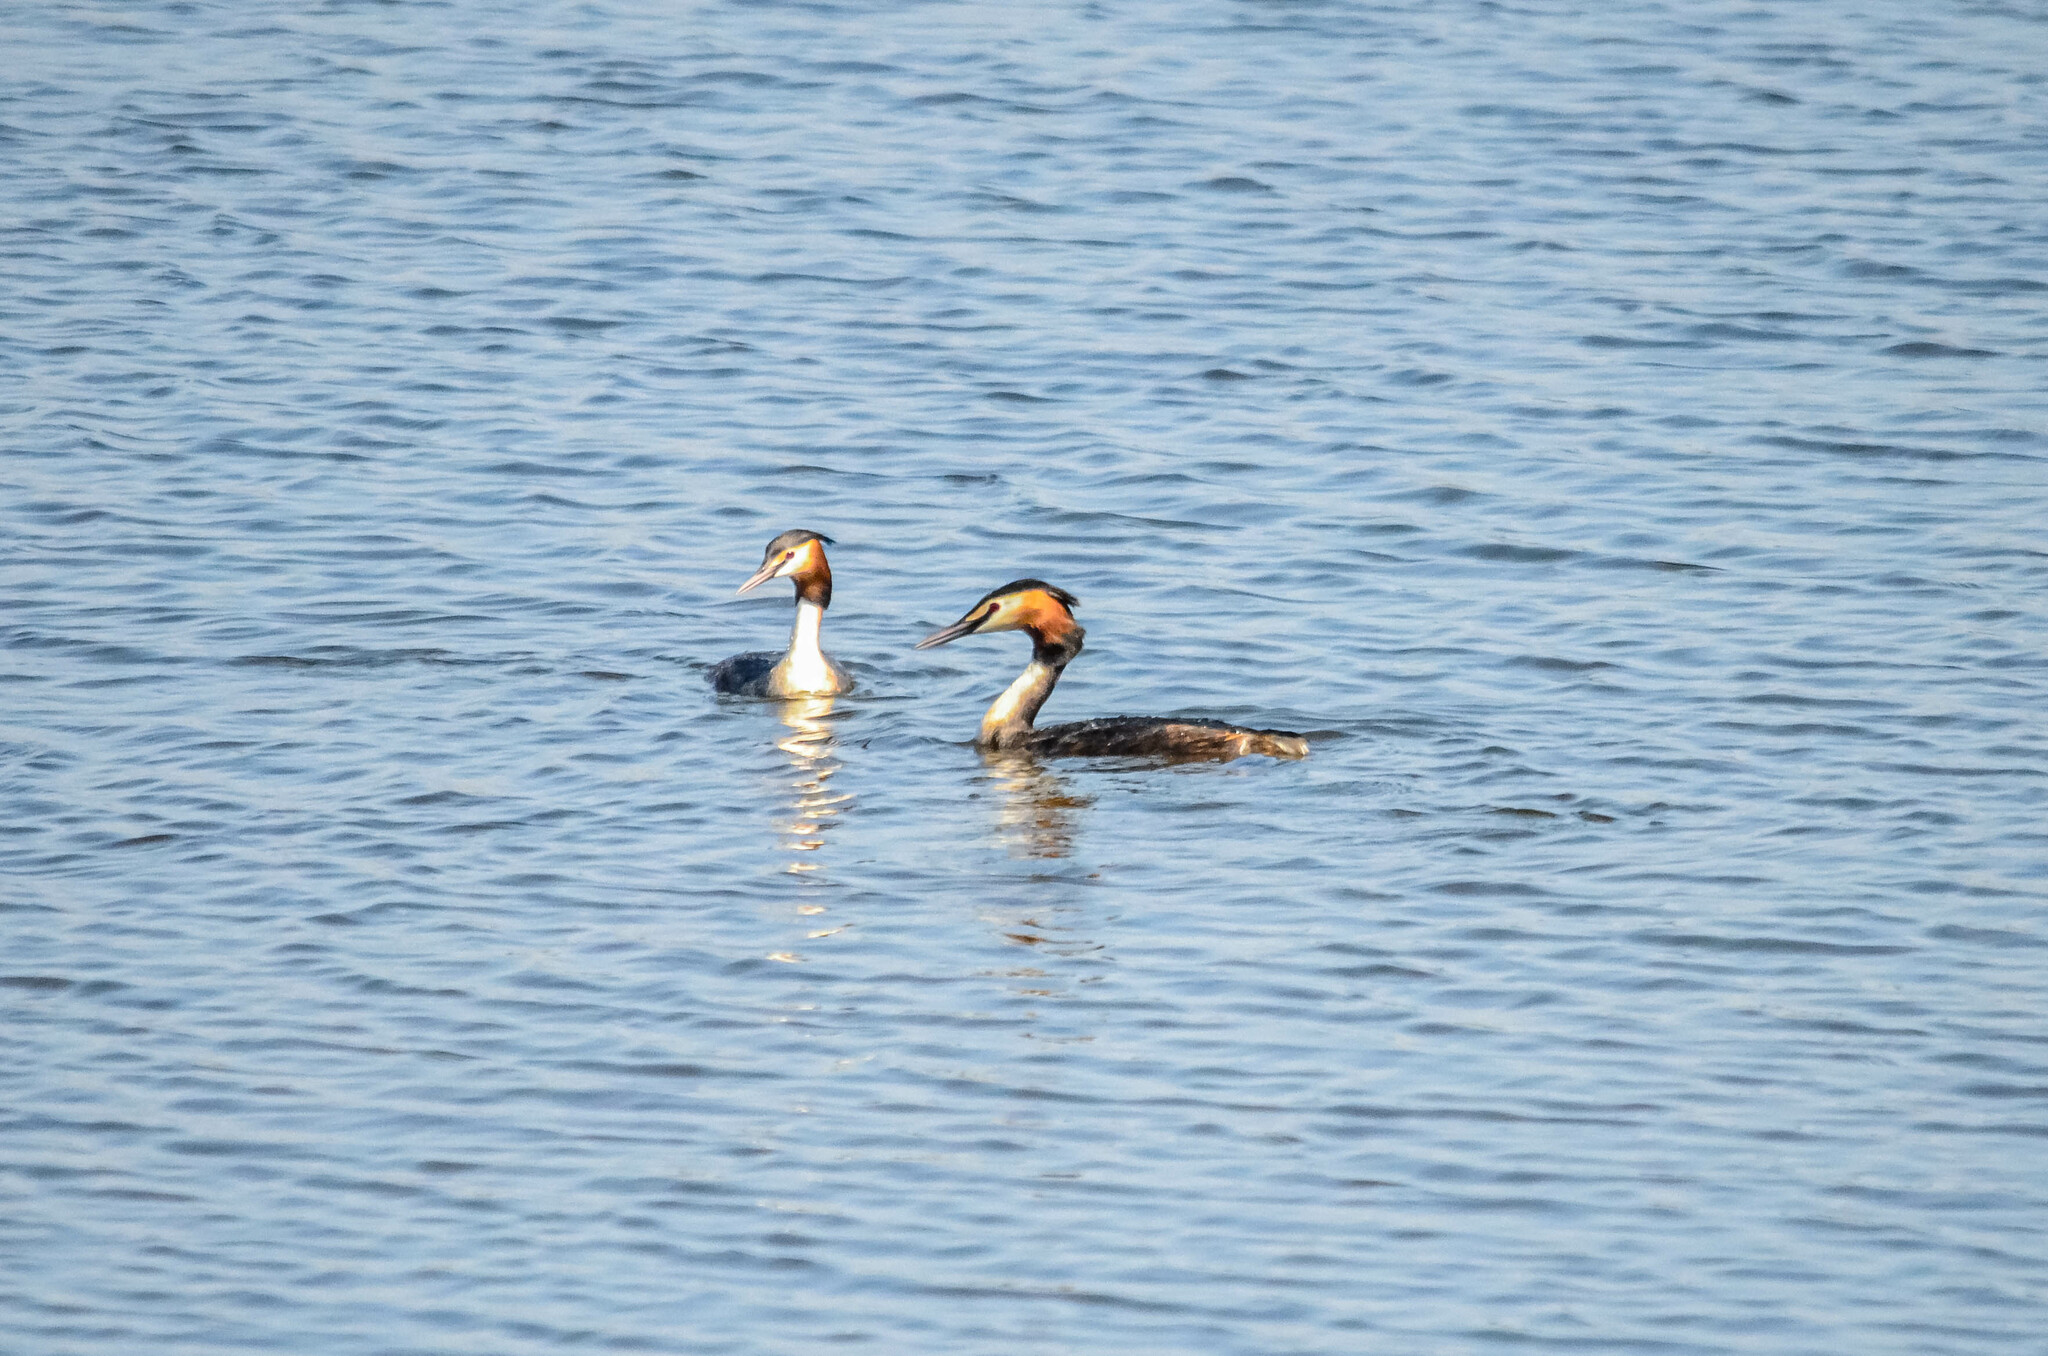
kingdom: Animalia
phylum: Chordata
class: Aves
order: Podicipediformes
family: Podicipedidae
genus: Podiceps
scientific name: Podiceps cristatus
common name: Great crested grebe
